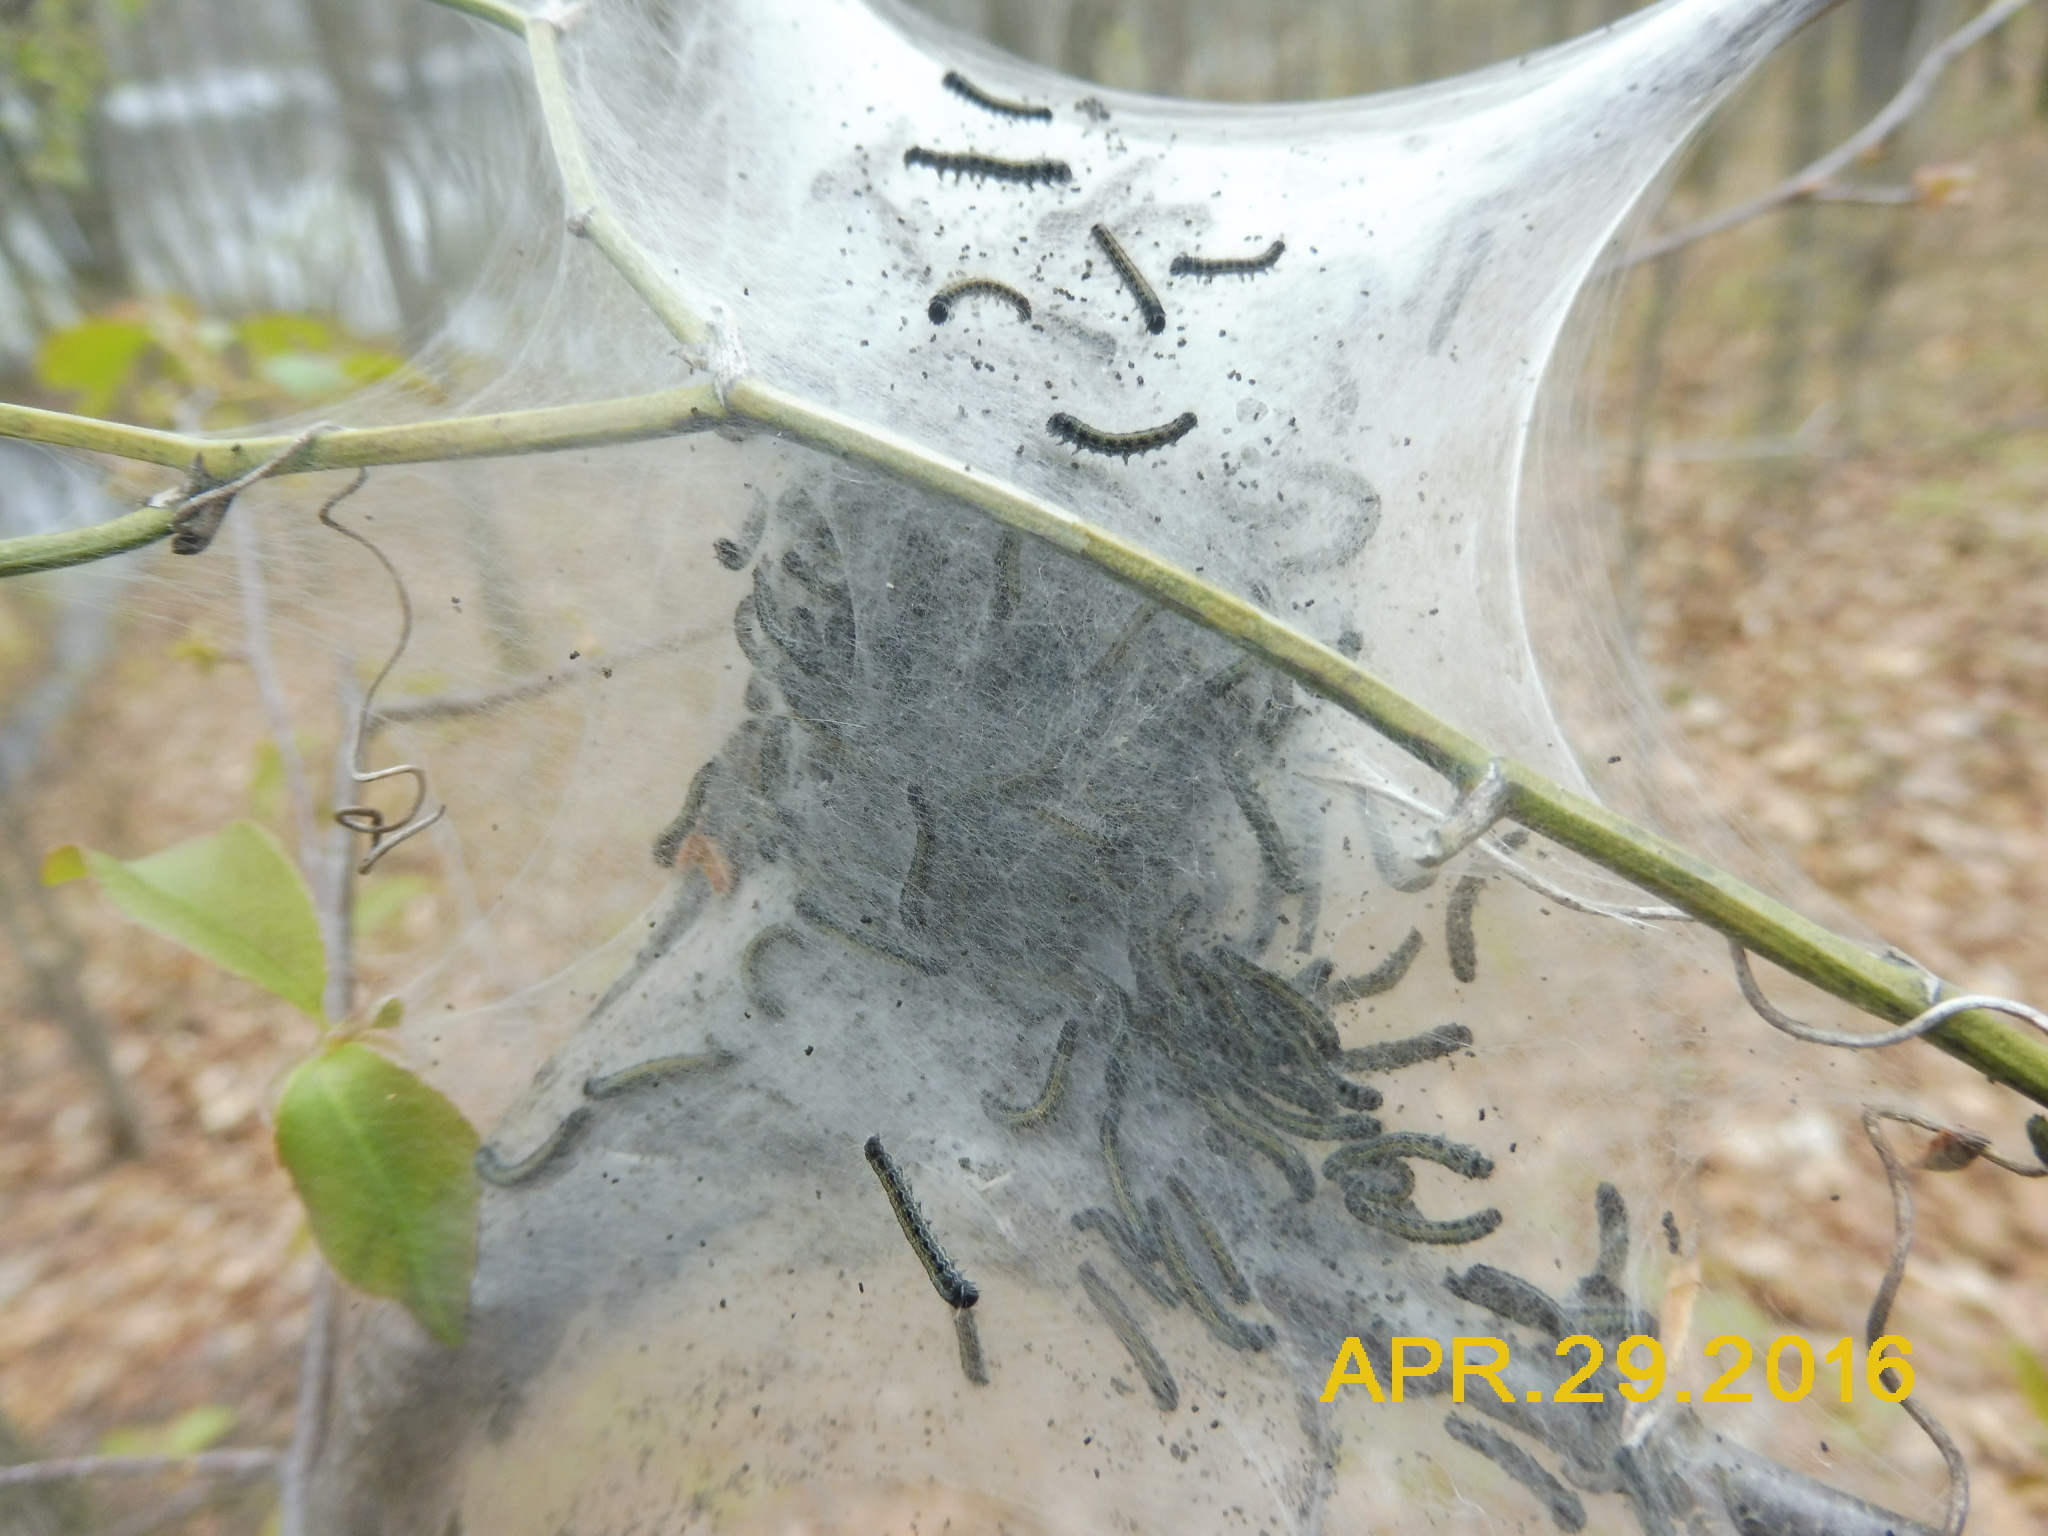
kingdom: Animalia
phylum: Arthropoda
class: Insecta
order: Lepidoptera
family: Lasiocampidae
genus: Malacosoma
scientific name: Malacosoma americana
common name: Eastern tent caterpillar moth
